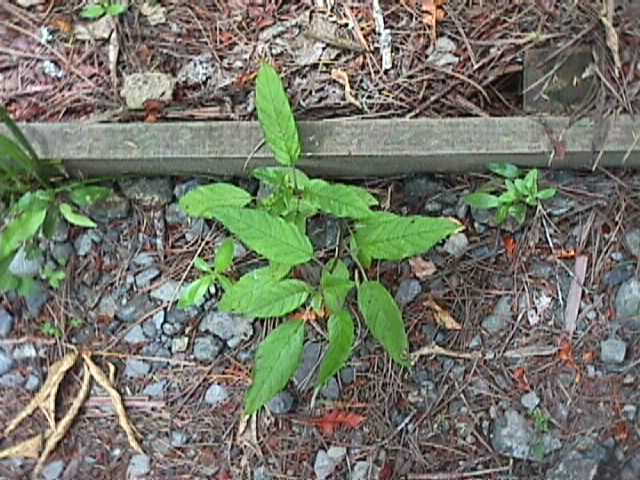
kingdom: Plantae
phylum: Tracheophyta
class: Magnoliopsida
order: Myrtales
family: Onagraceae
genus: Fuchsia
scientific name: Fuchsia excorticata
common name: Tree fuchsia
